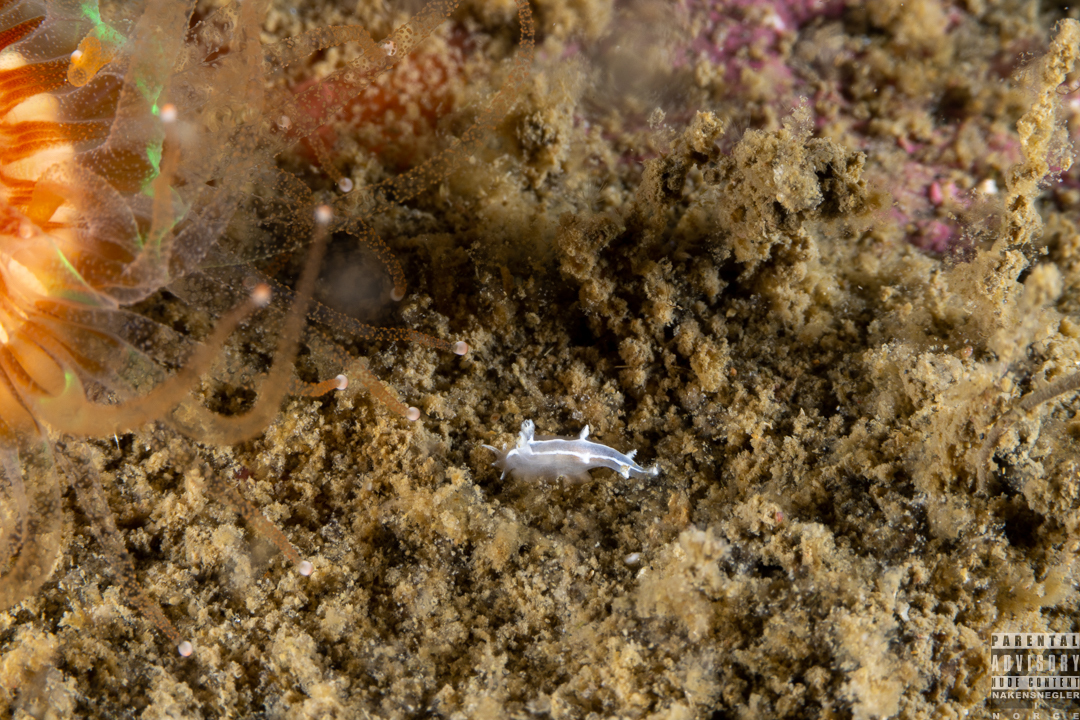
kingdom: Animalia
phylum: Mollusca
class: Gastropoda
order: Nudibranchia
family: Tritoniidae
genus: Duvaucelia
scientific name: Duvaucelia lineata
